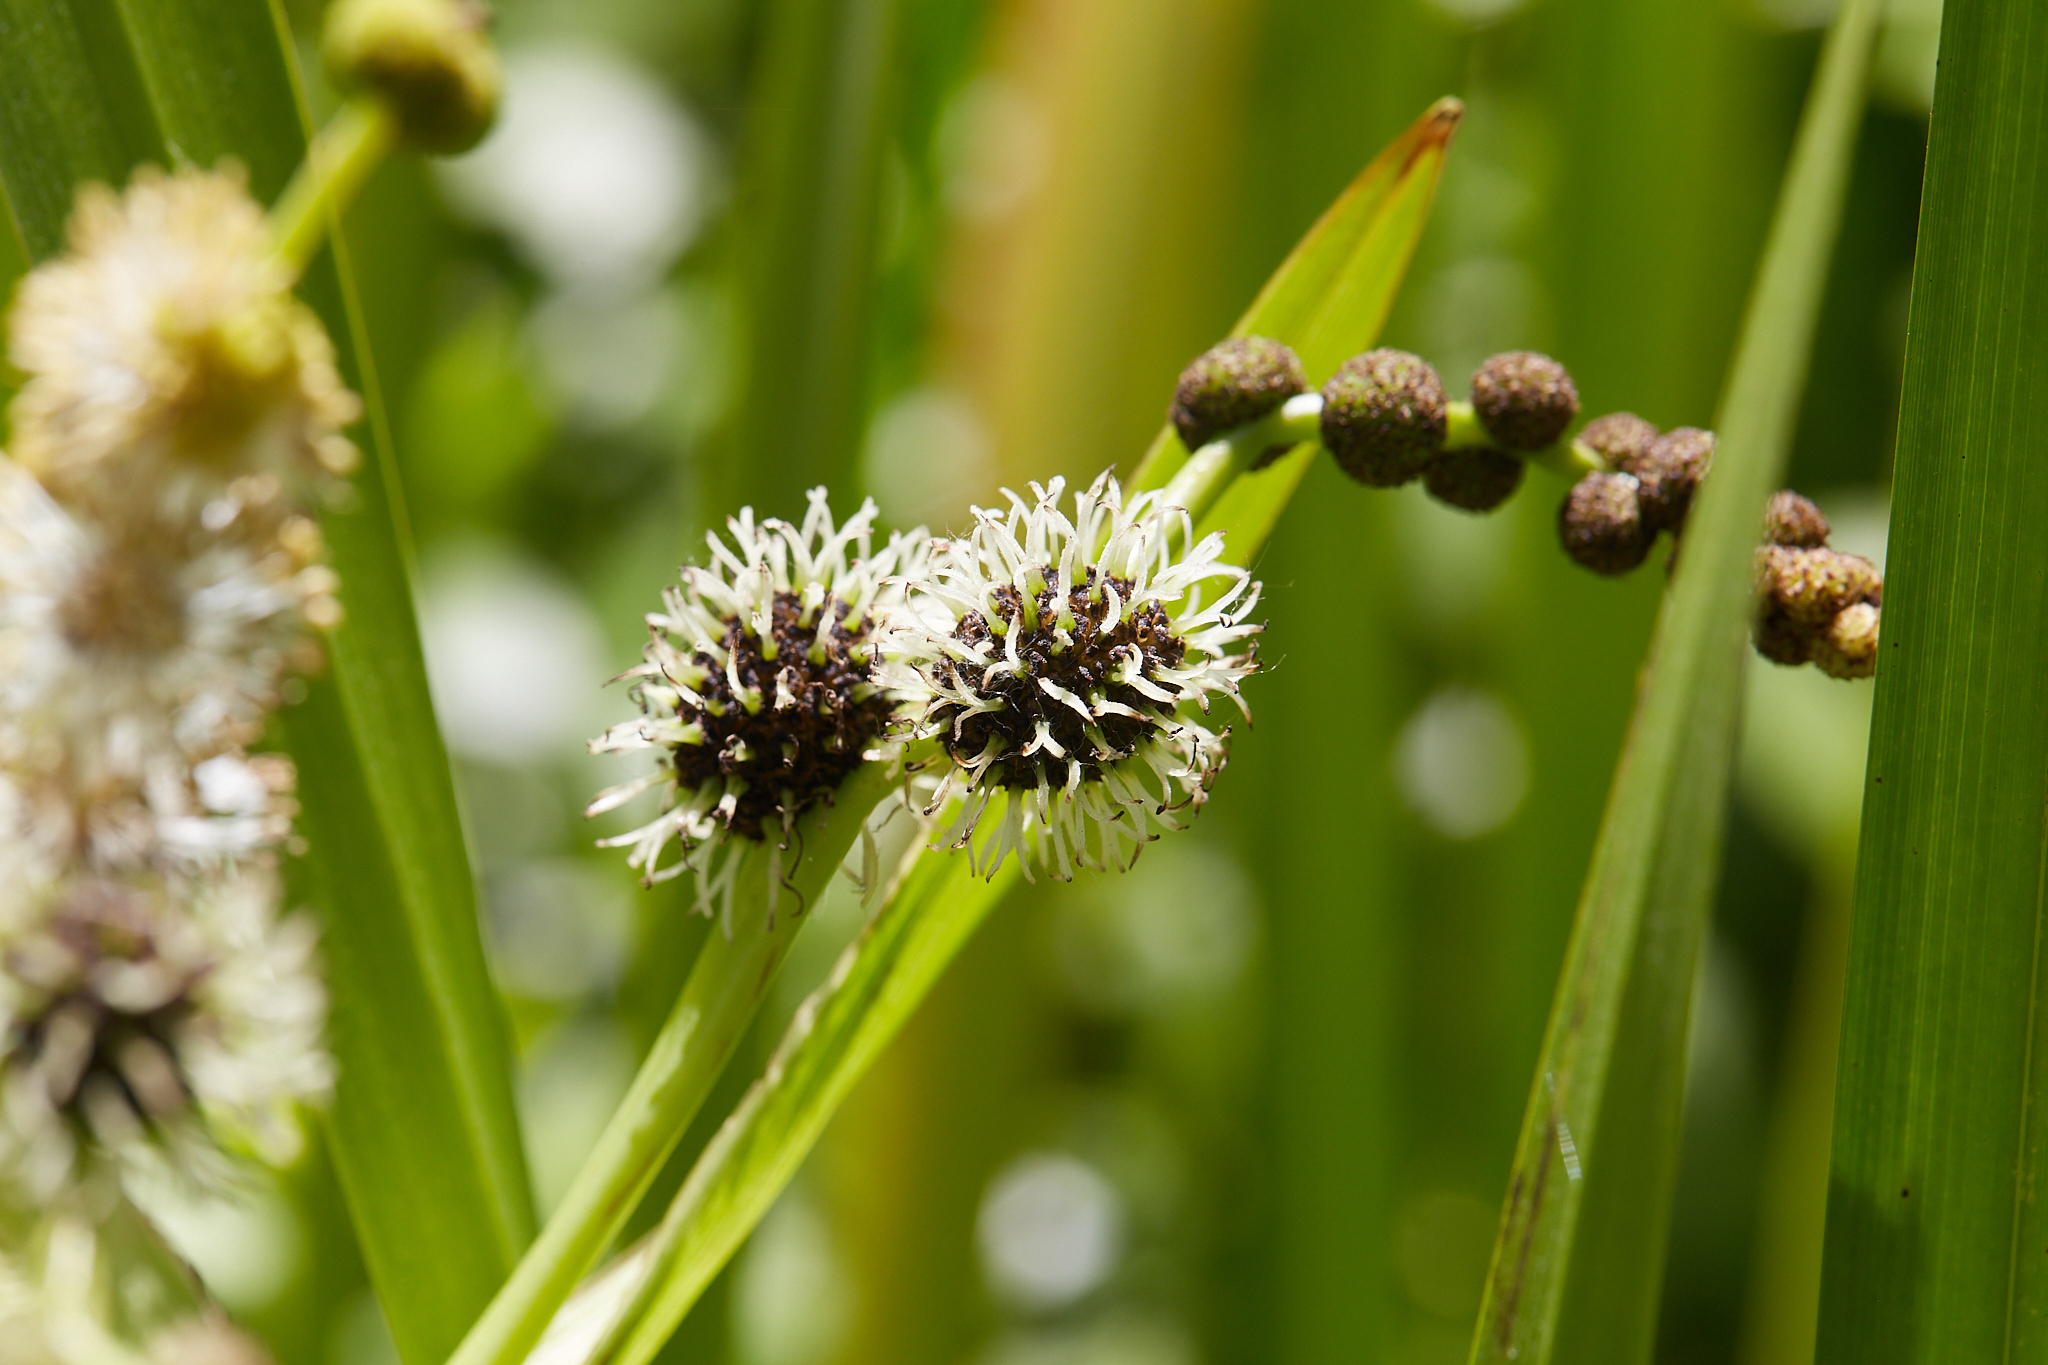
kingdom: Plantae
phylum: Tracheophyta
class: Liliopsida
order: Poales
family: Typhaceae
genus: Sparganium
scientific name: Sparganium eurycarpum
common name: Broad-fruited burreed
